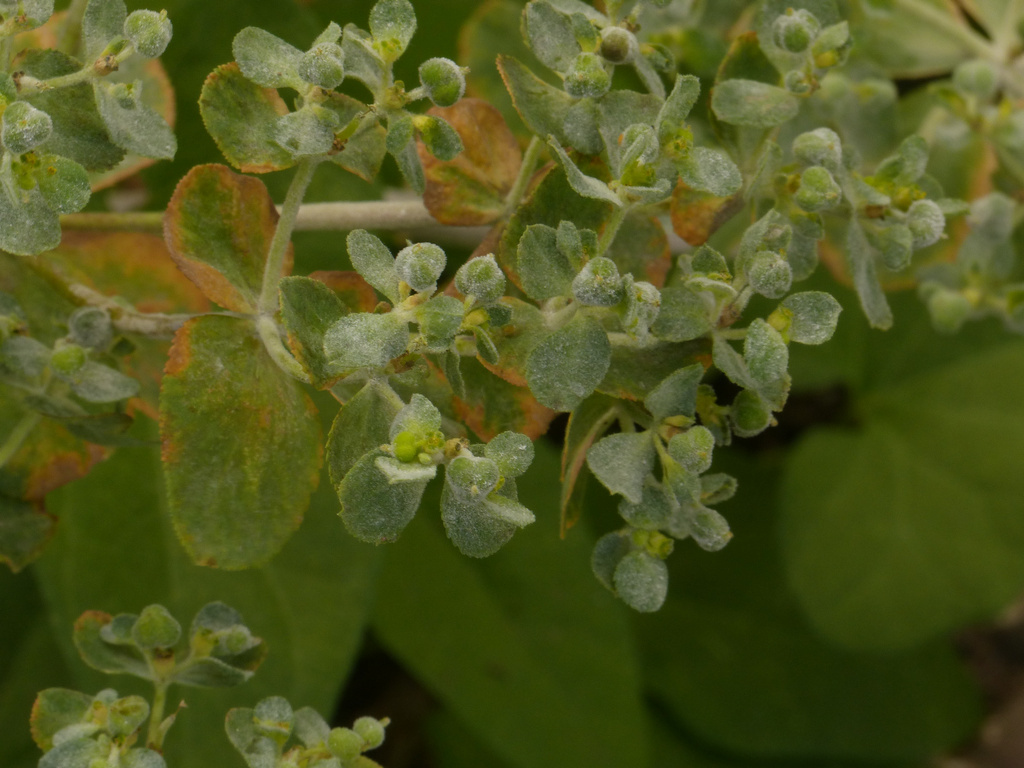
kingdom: Plantae
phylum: Tracheophyta
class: Magnoliopsida
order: Malpighiales
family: Euphorbiaceae
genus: Euphorbia
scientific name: Euphorbia helioscopia
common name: Sun spurge
